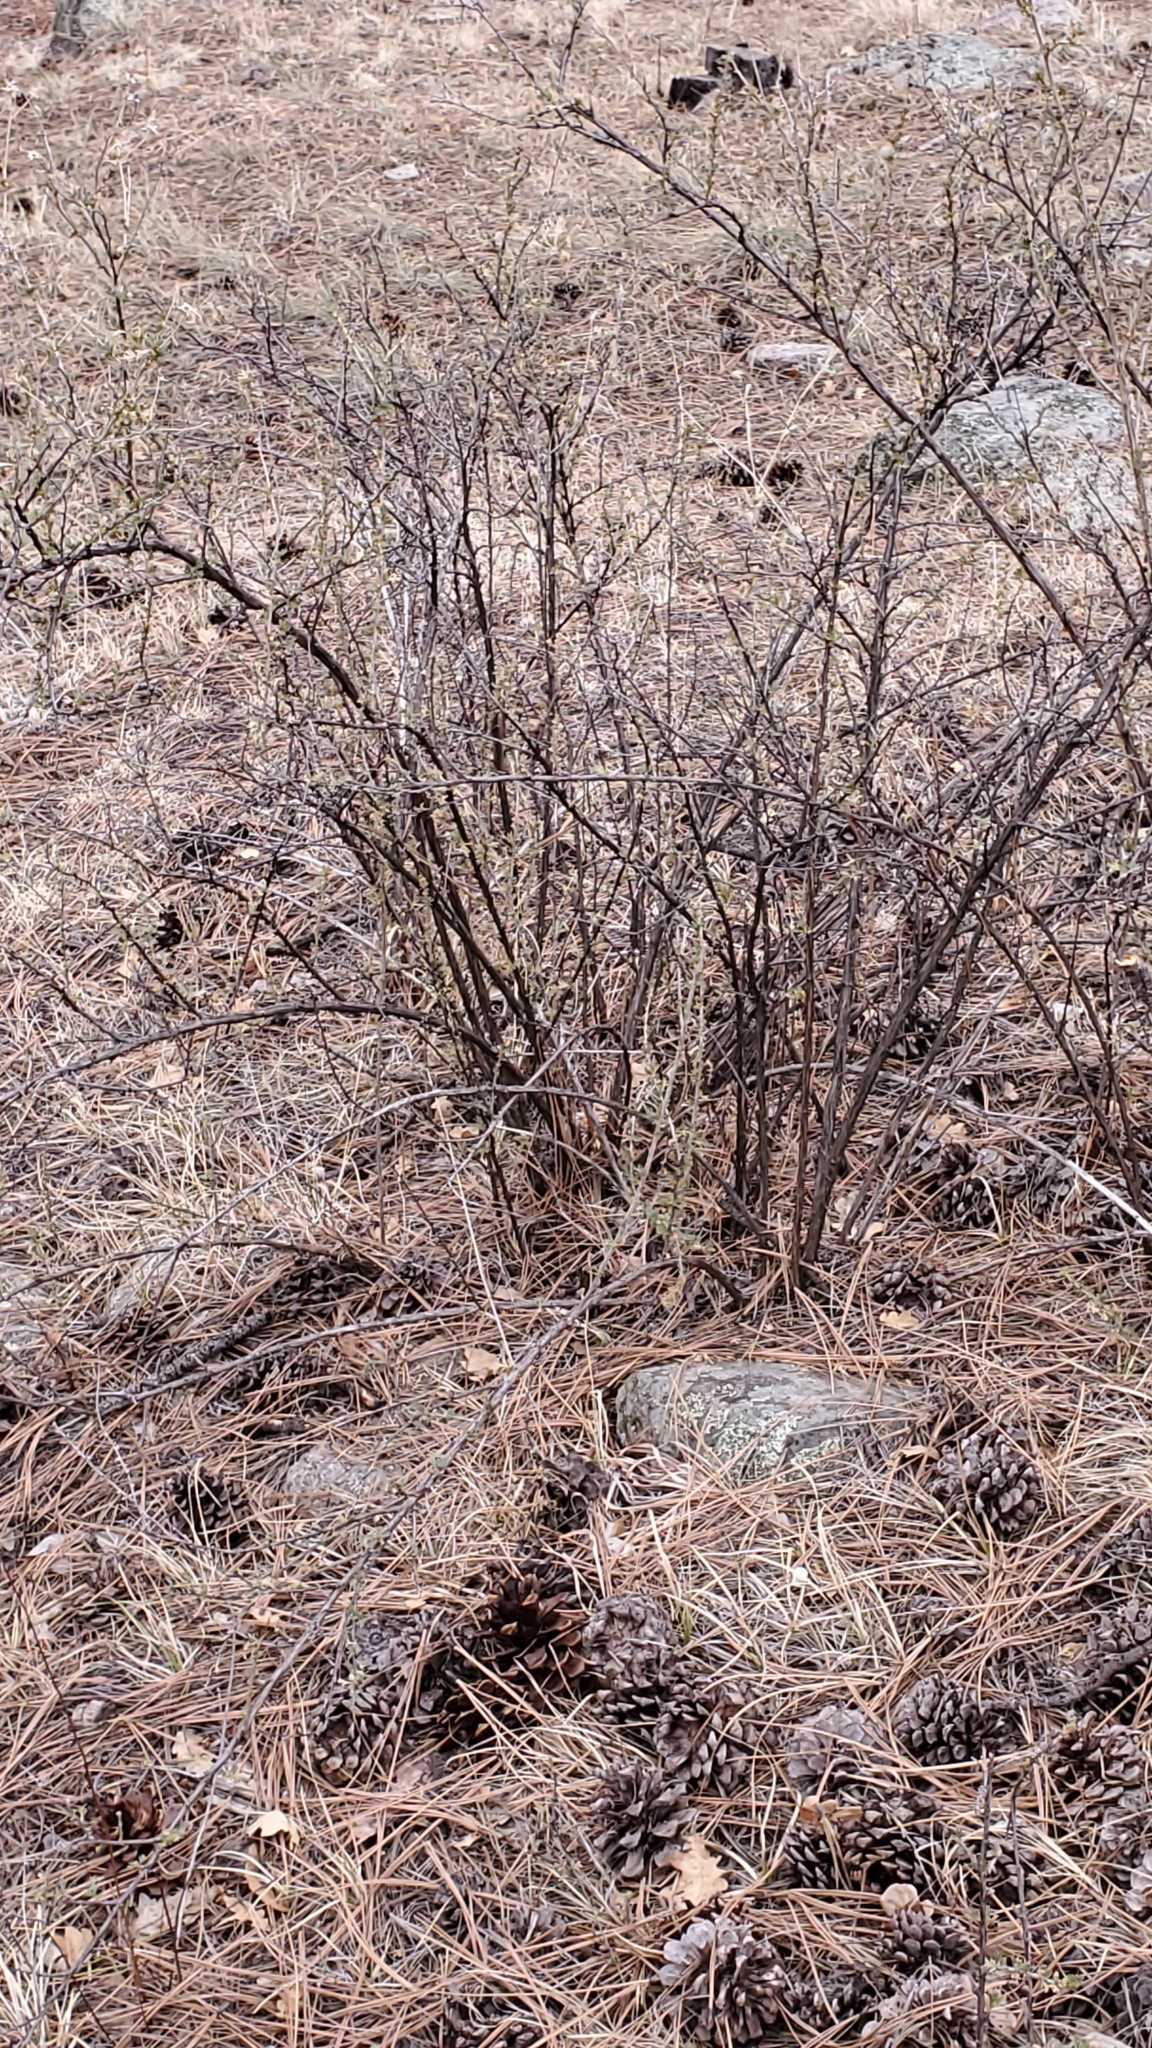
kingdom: Plantae
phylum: Tracheophyta
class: Magnoliopsida
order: Rosales
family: Rosaceae
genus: Fallugia
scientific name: Fallugia paradoxa
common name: Apache-plume
